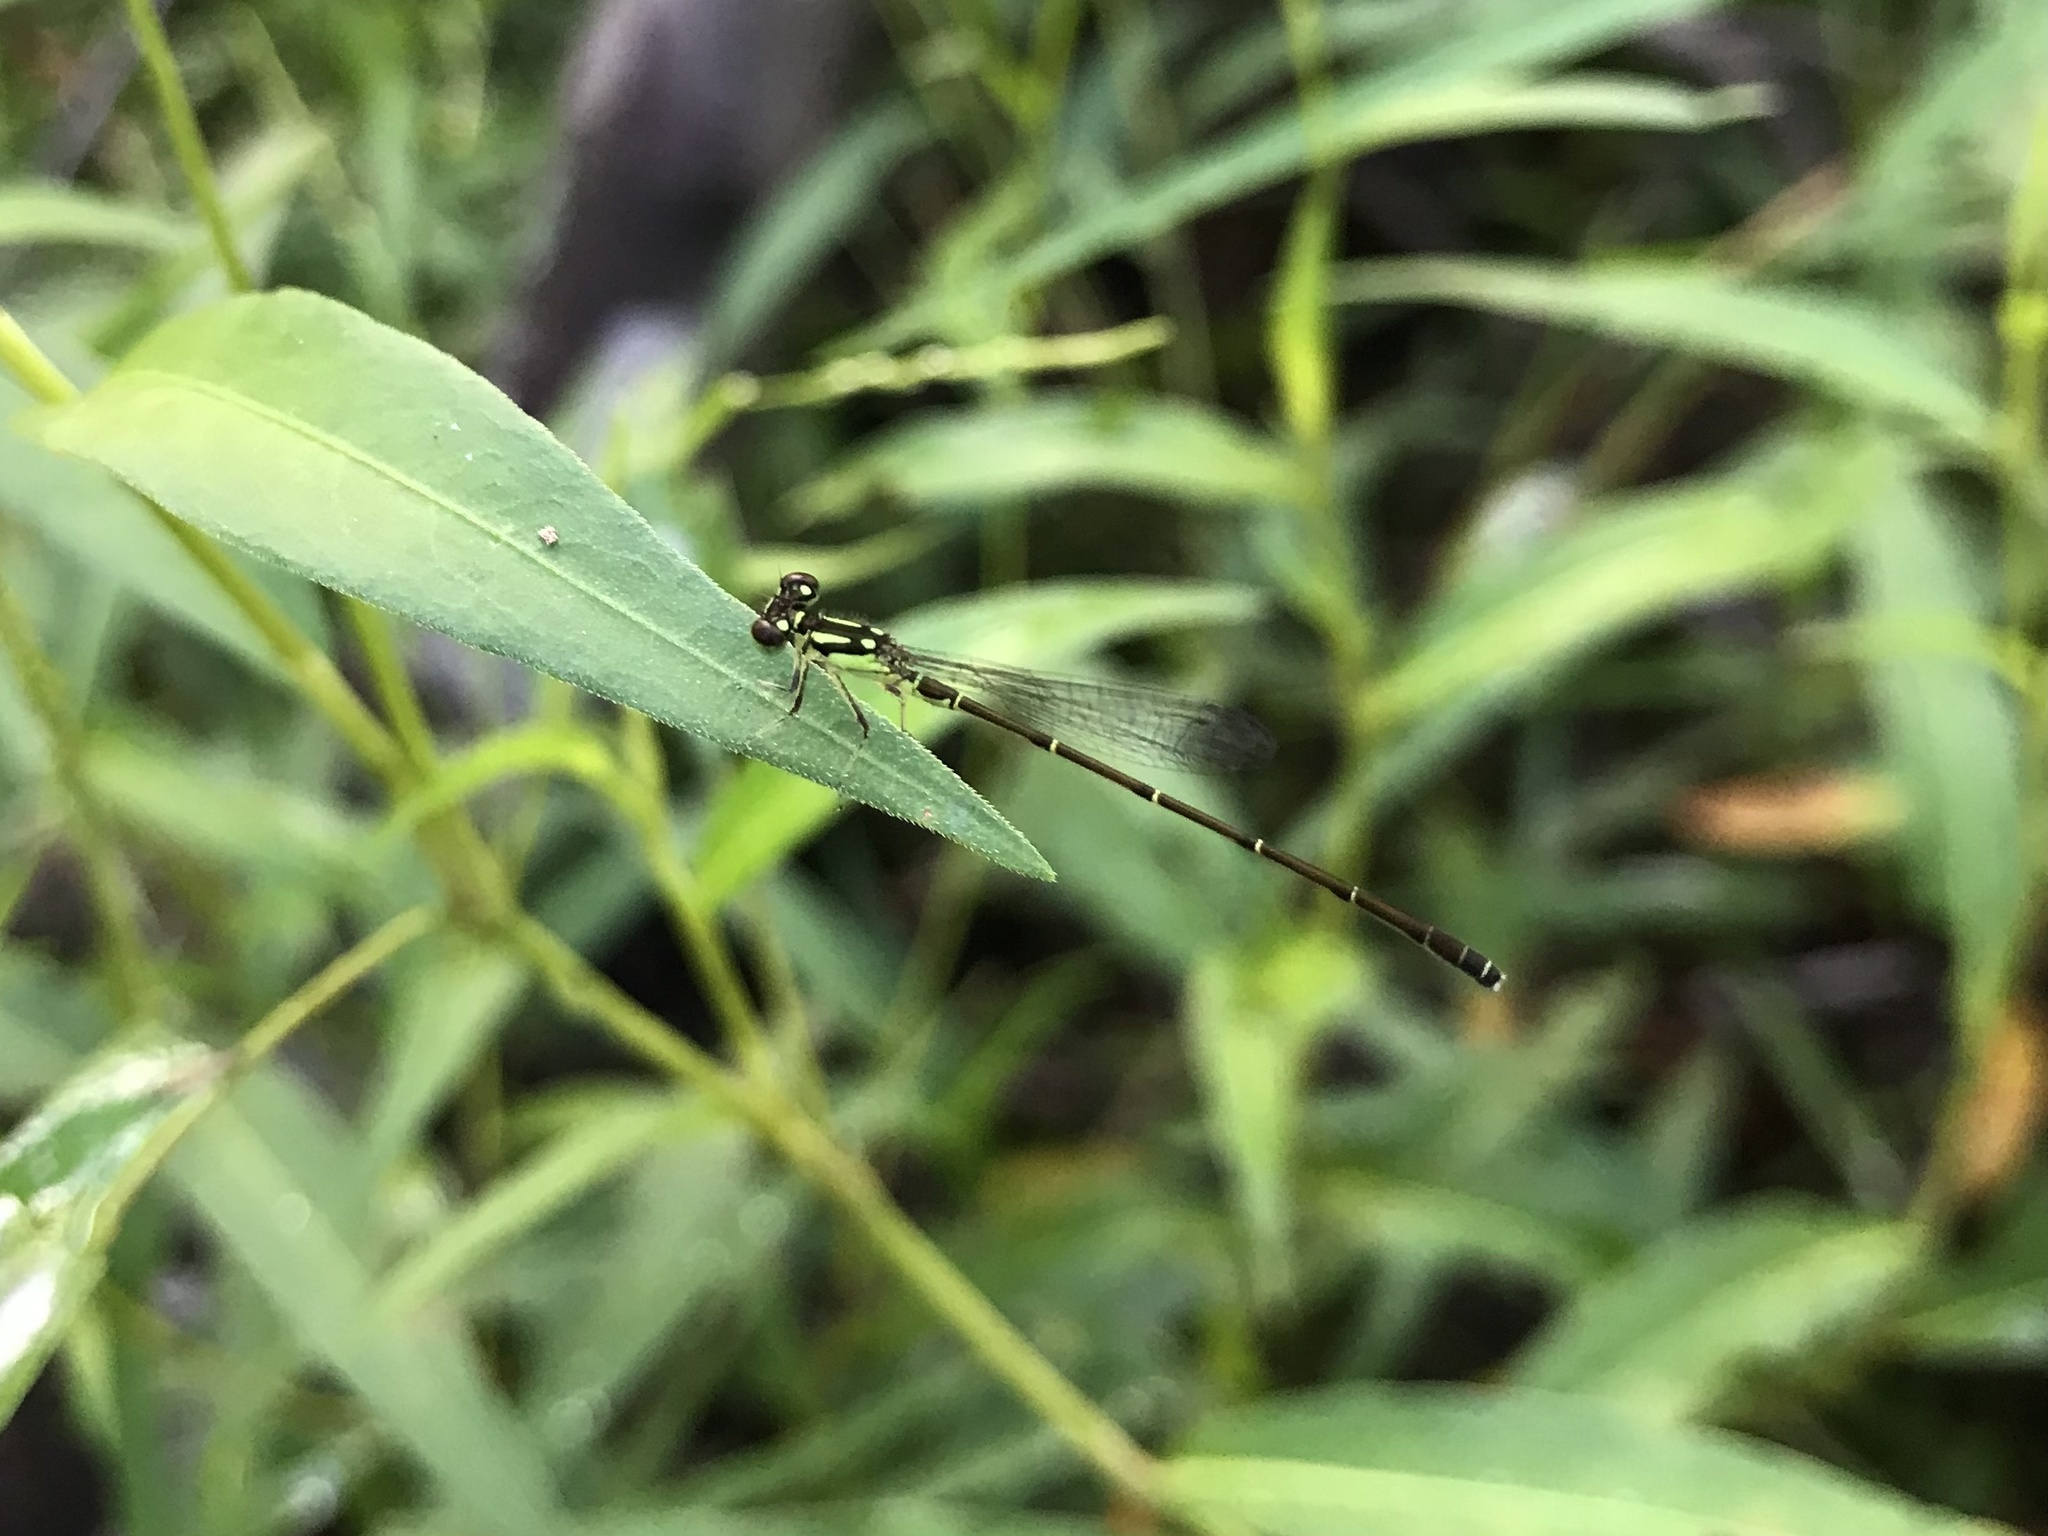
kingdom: Animalia
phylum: Arthropoda
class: Insecta
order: Odonata
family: Coenagrionidae
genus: Ischnura
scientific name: Ischnura posita
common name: Fragile forktail
